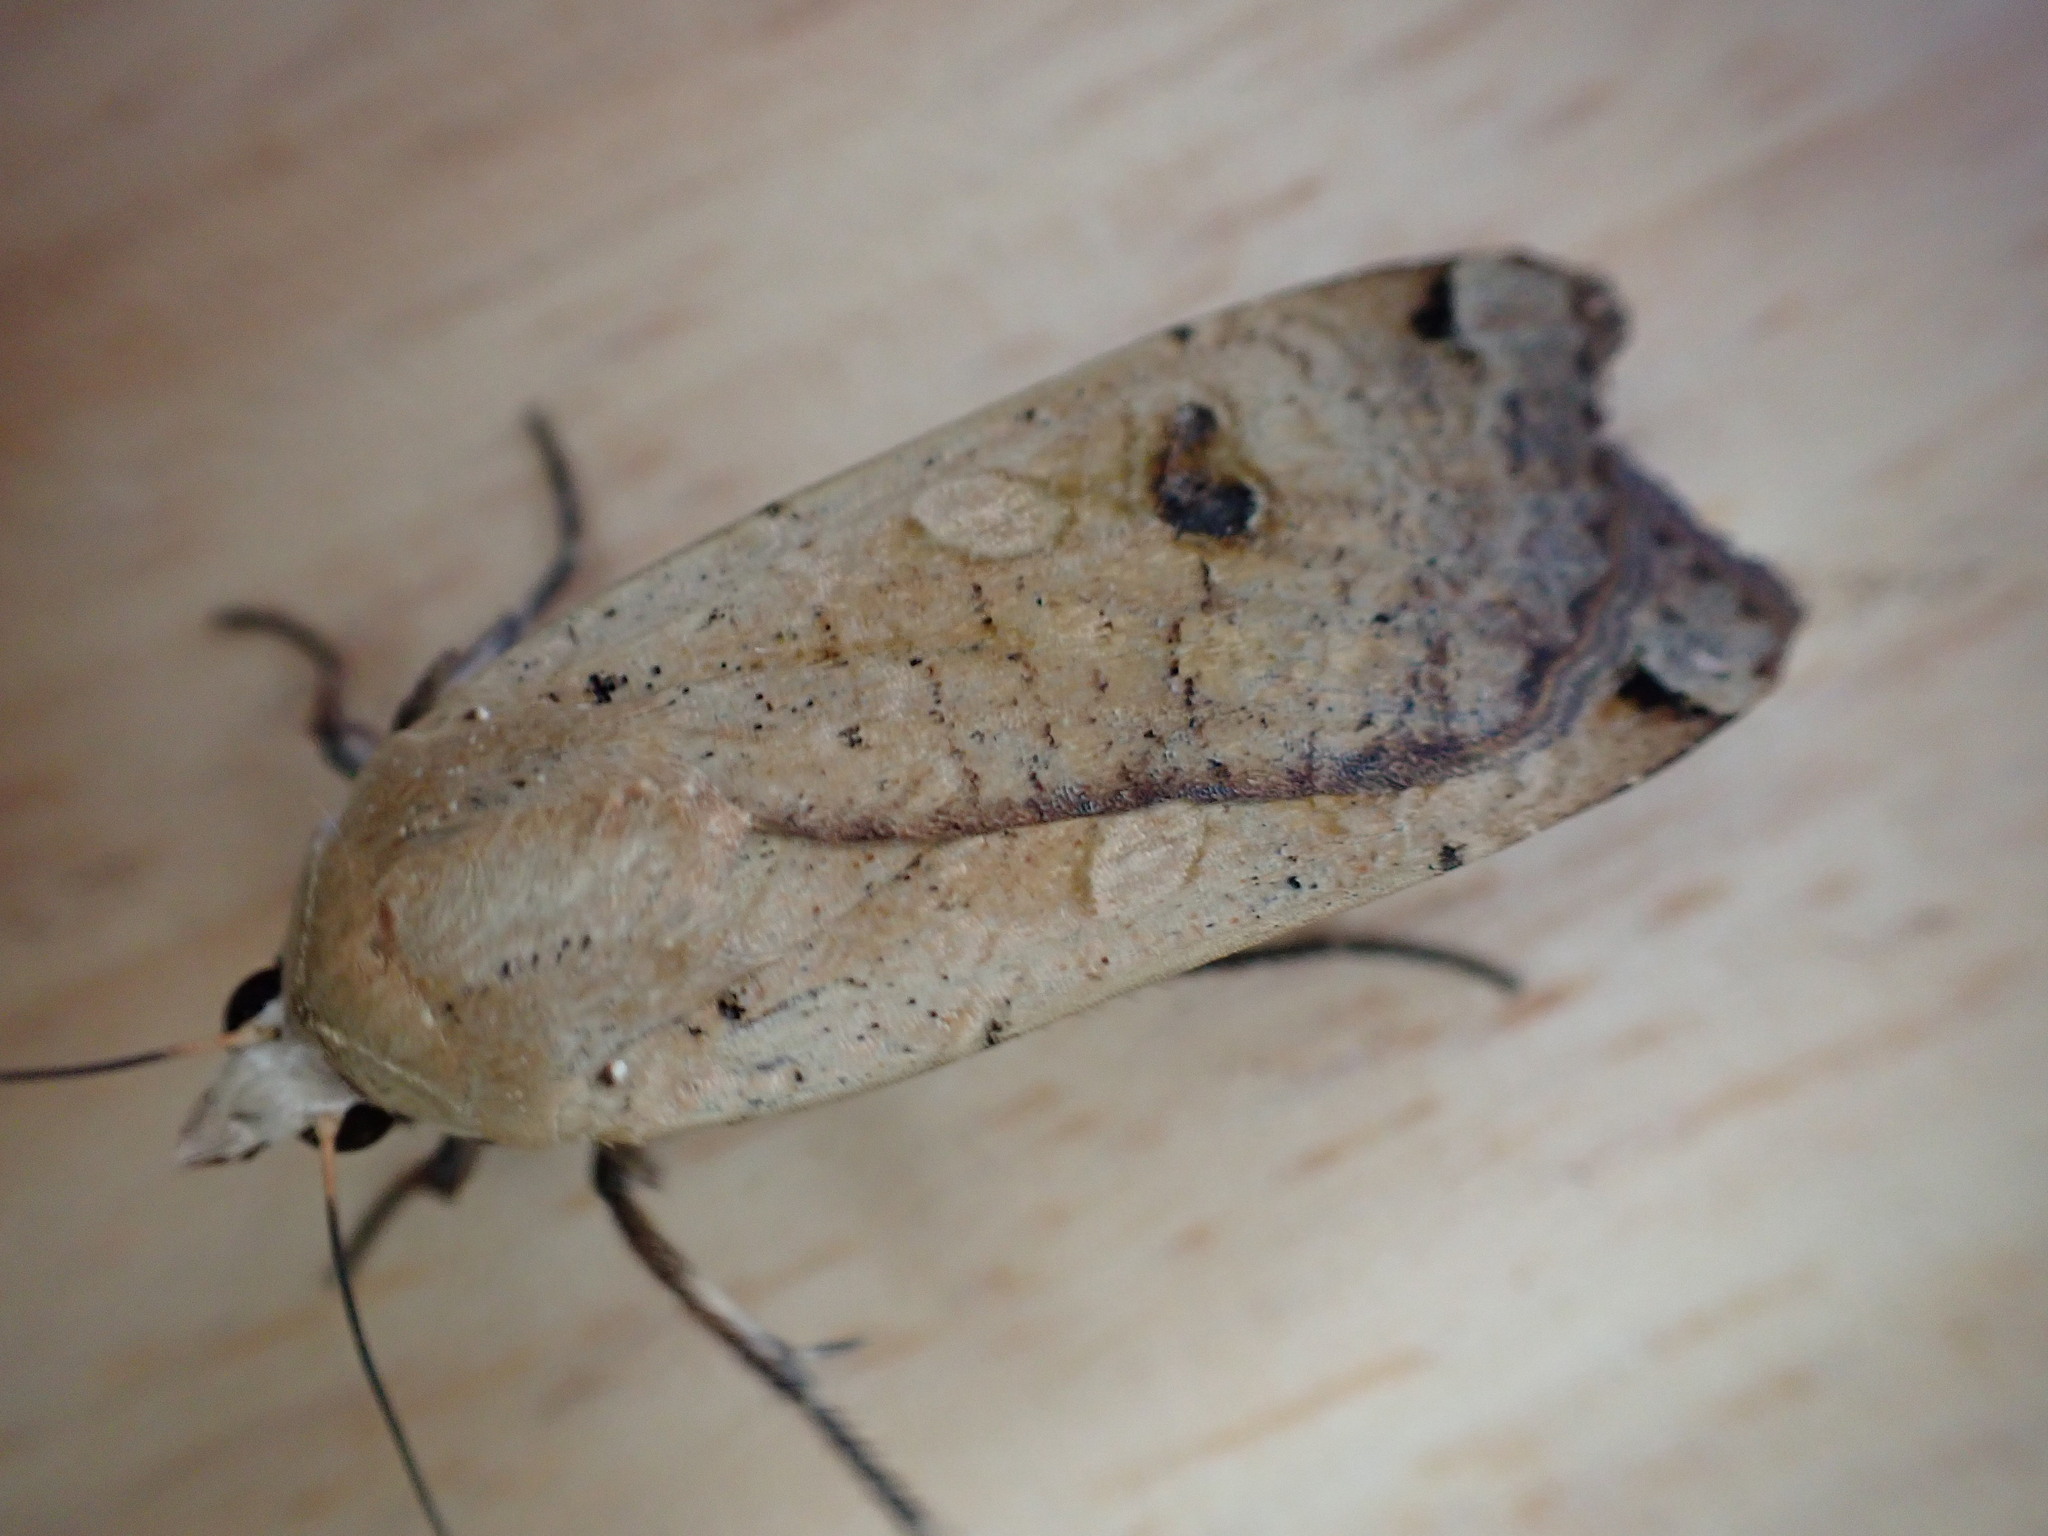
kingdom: Animalia
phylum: Arthropoda
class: Insecta
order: Lepidoptera
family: Noctuidae
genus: Noctua
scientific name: Noctua pronuba
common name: Large yellow underwing
